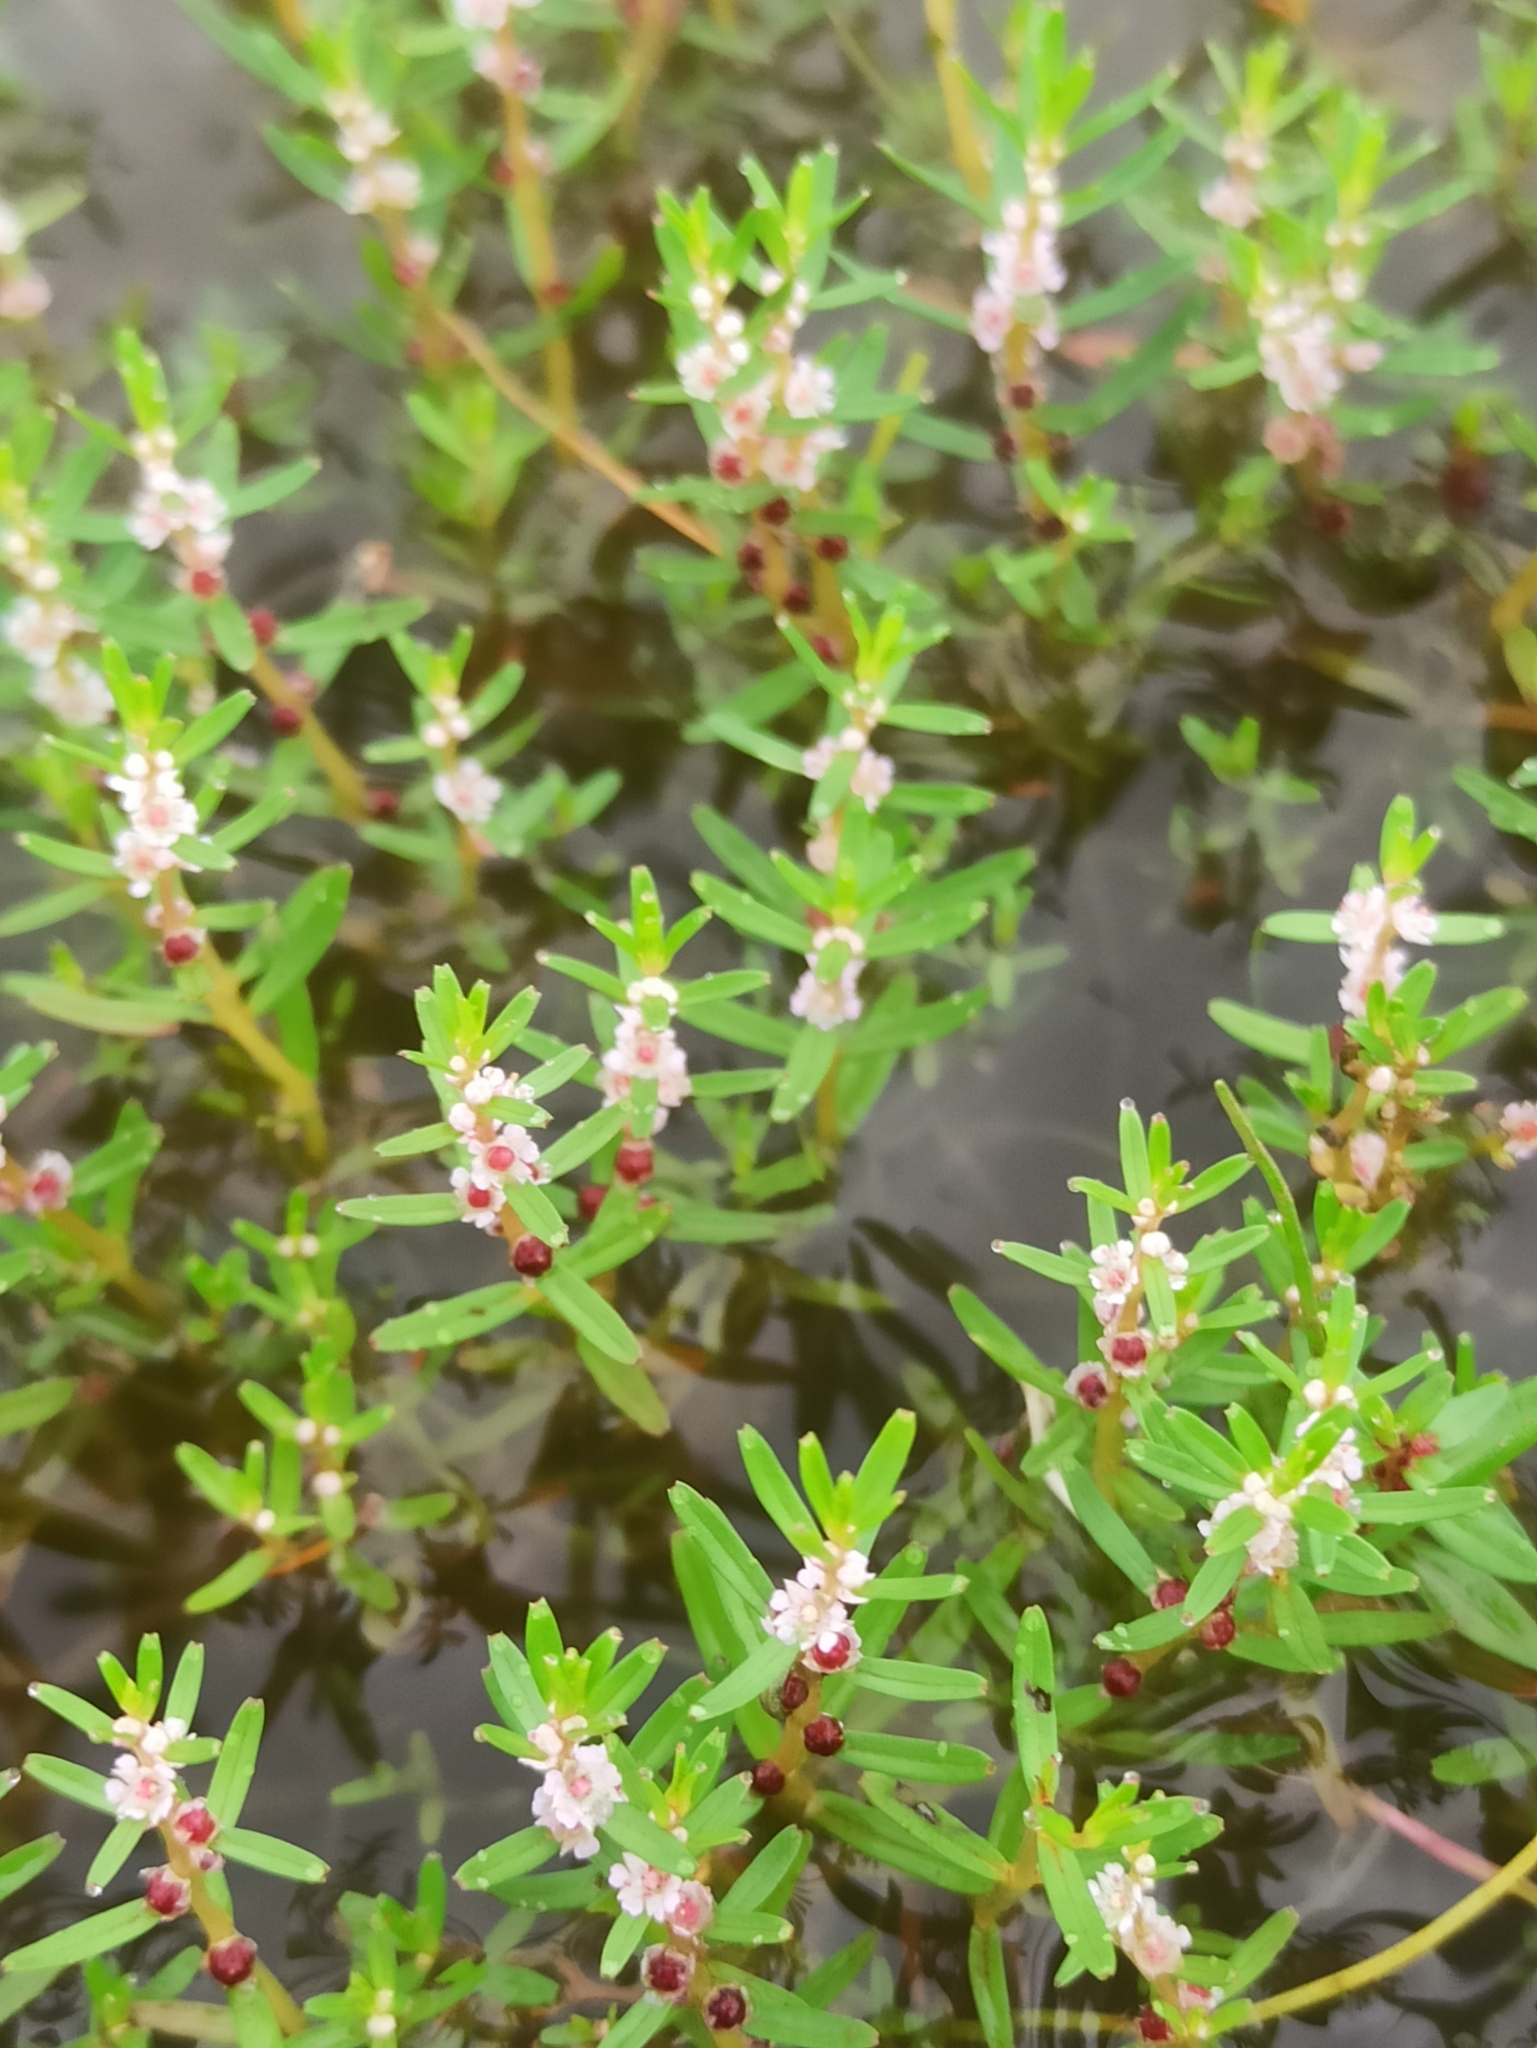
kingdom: Plantae
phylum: Tracheophyta
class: Magnoliopsida
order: Myrtales
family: Lythraceae
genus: Rotala
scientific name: Rotala malabarica
